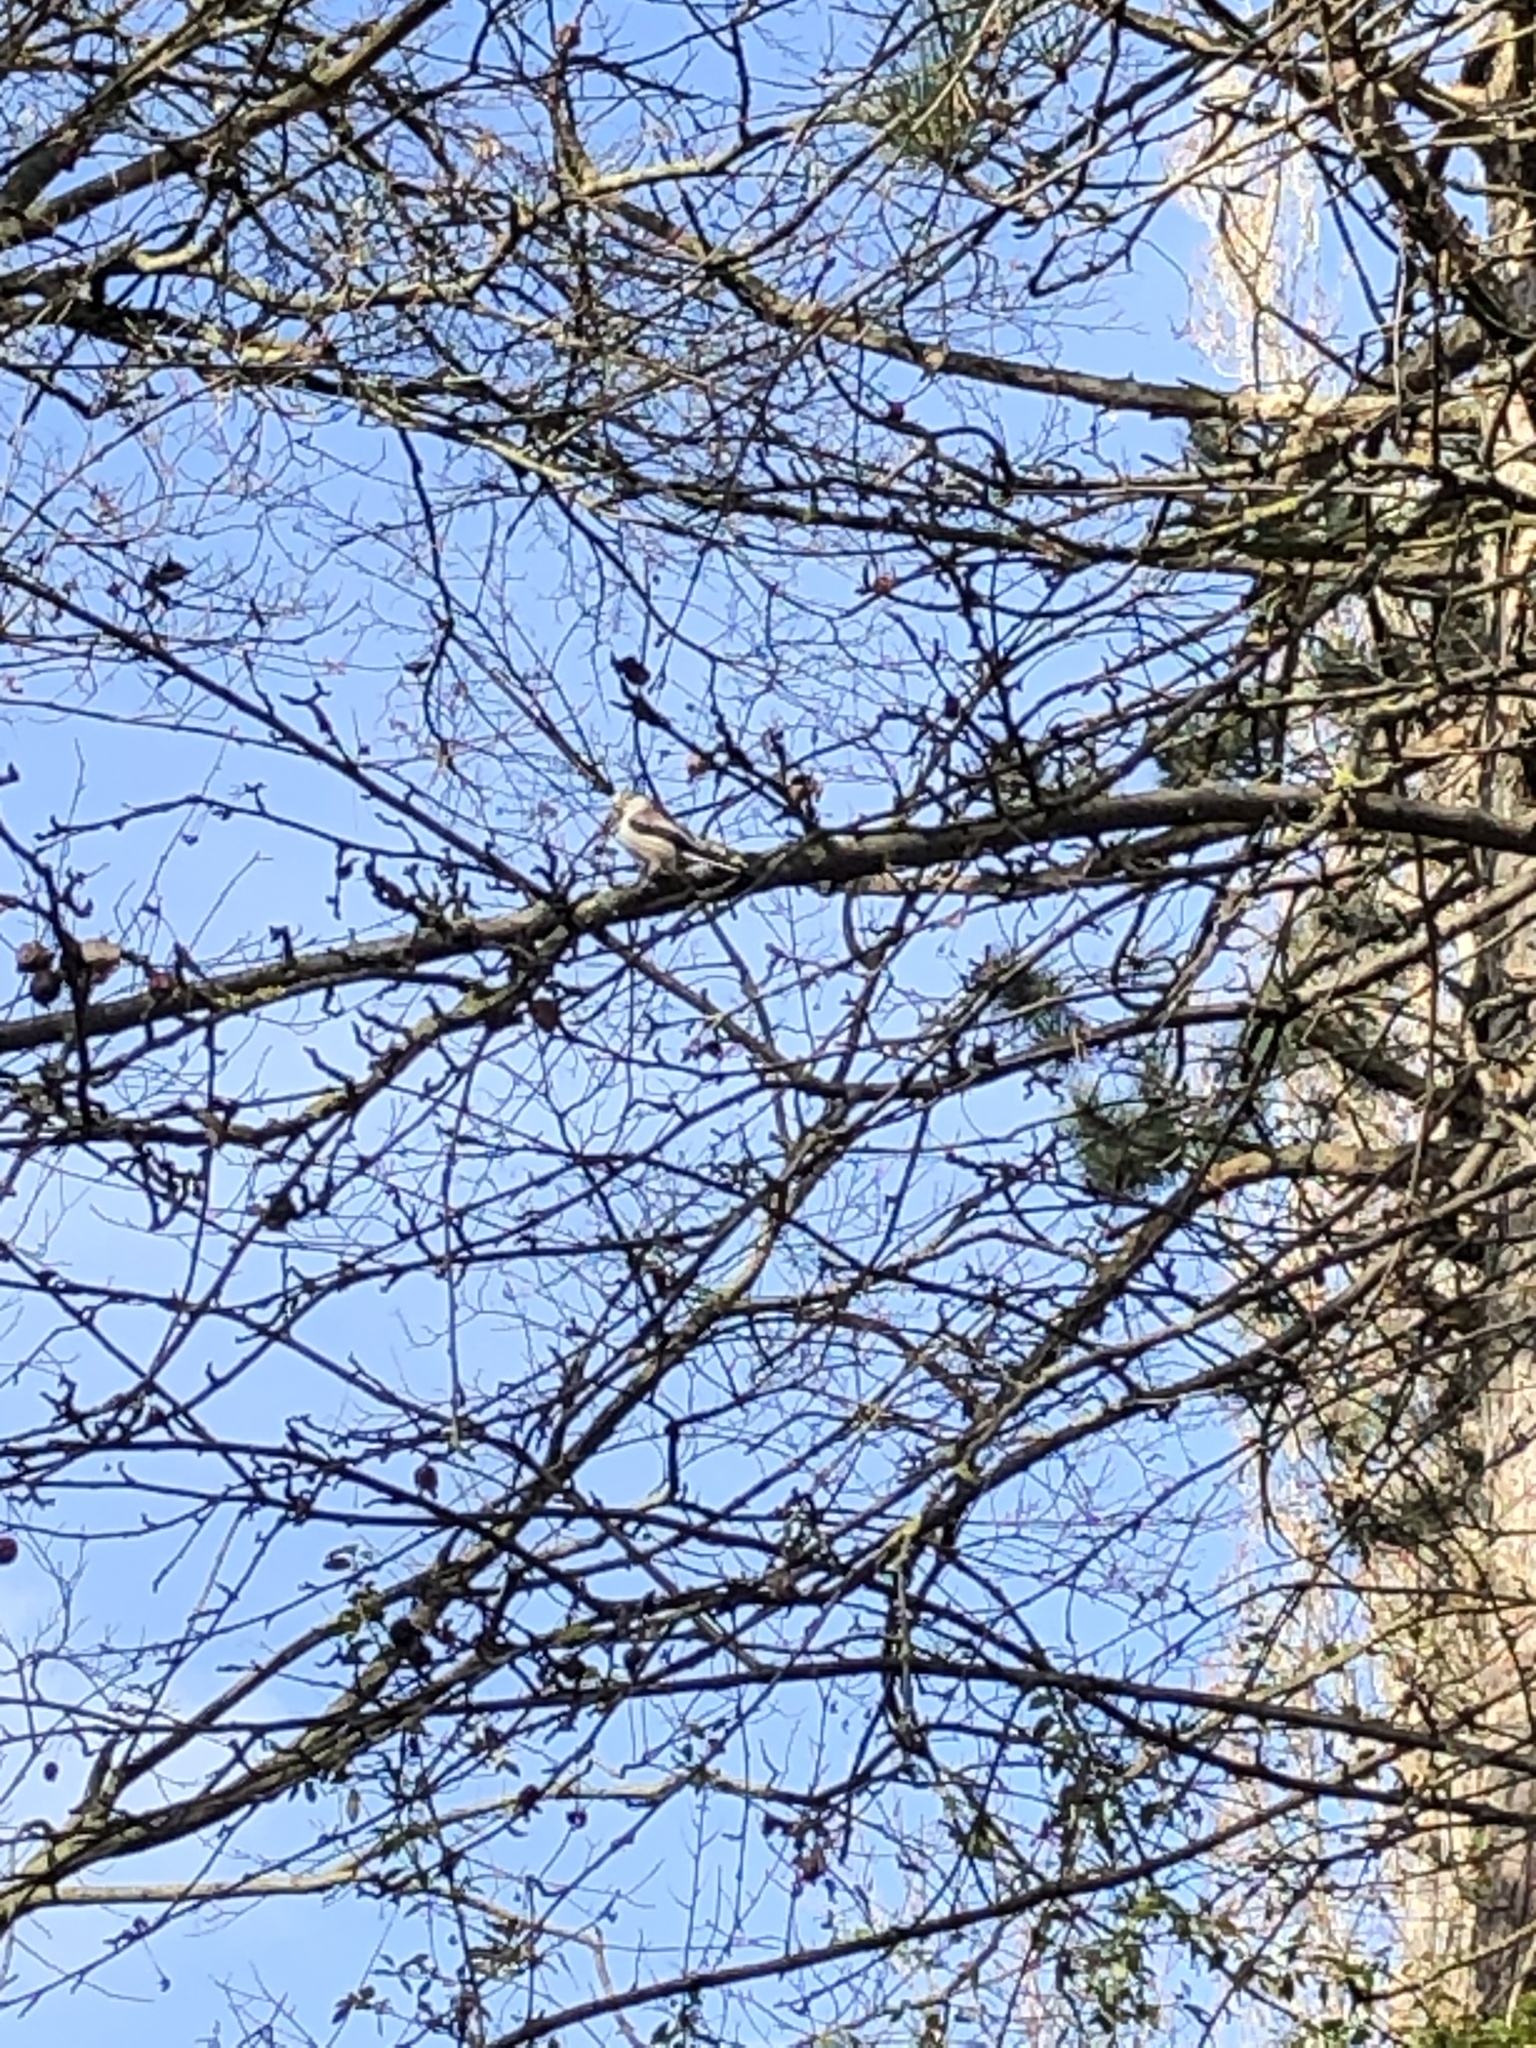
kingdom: Animalia
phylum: Chordata
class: Aves
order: Passeriformes
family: Aegithalidae
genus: Aegithalos
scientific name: Aegithalos caudatus
